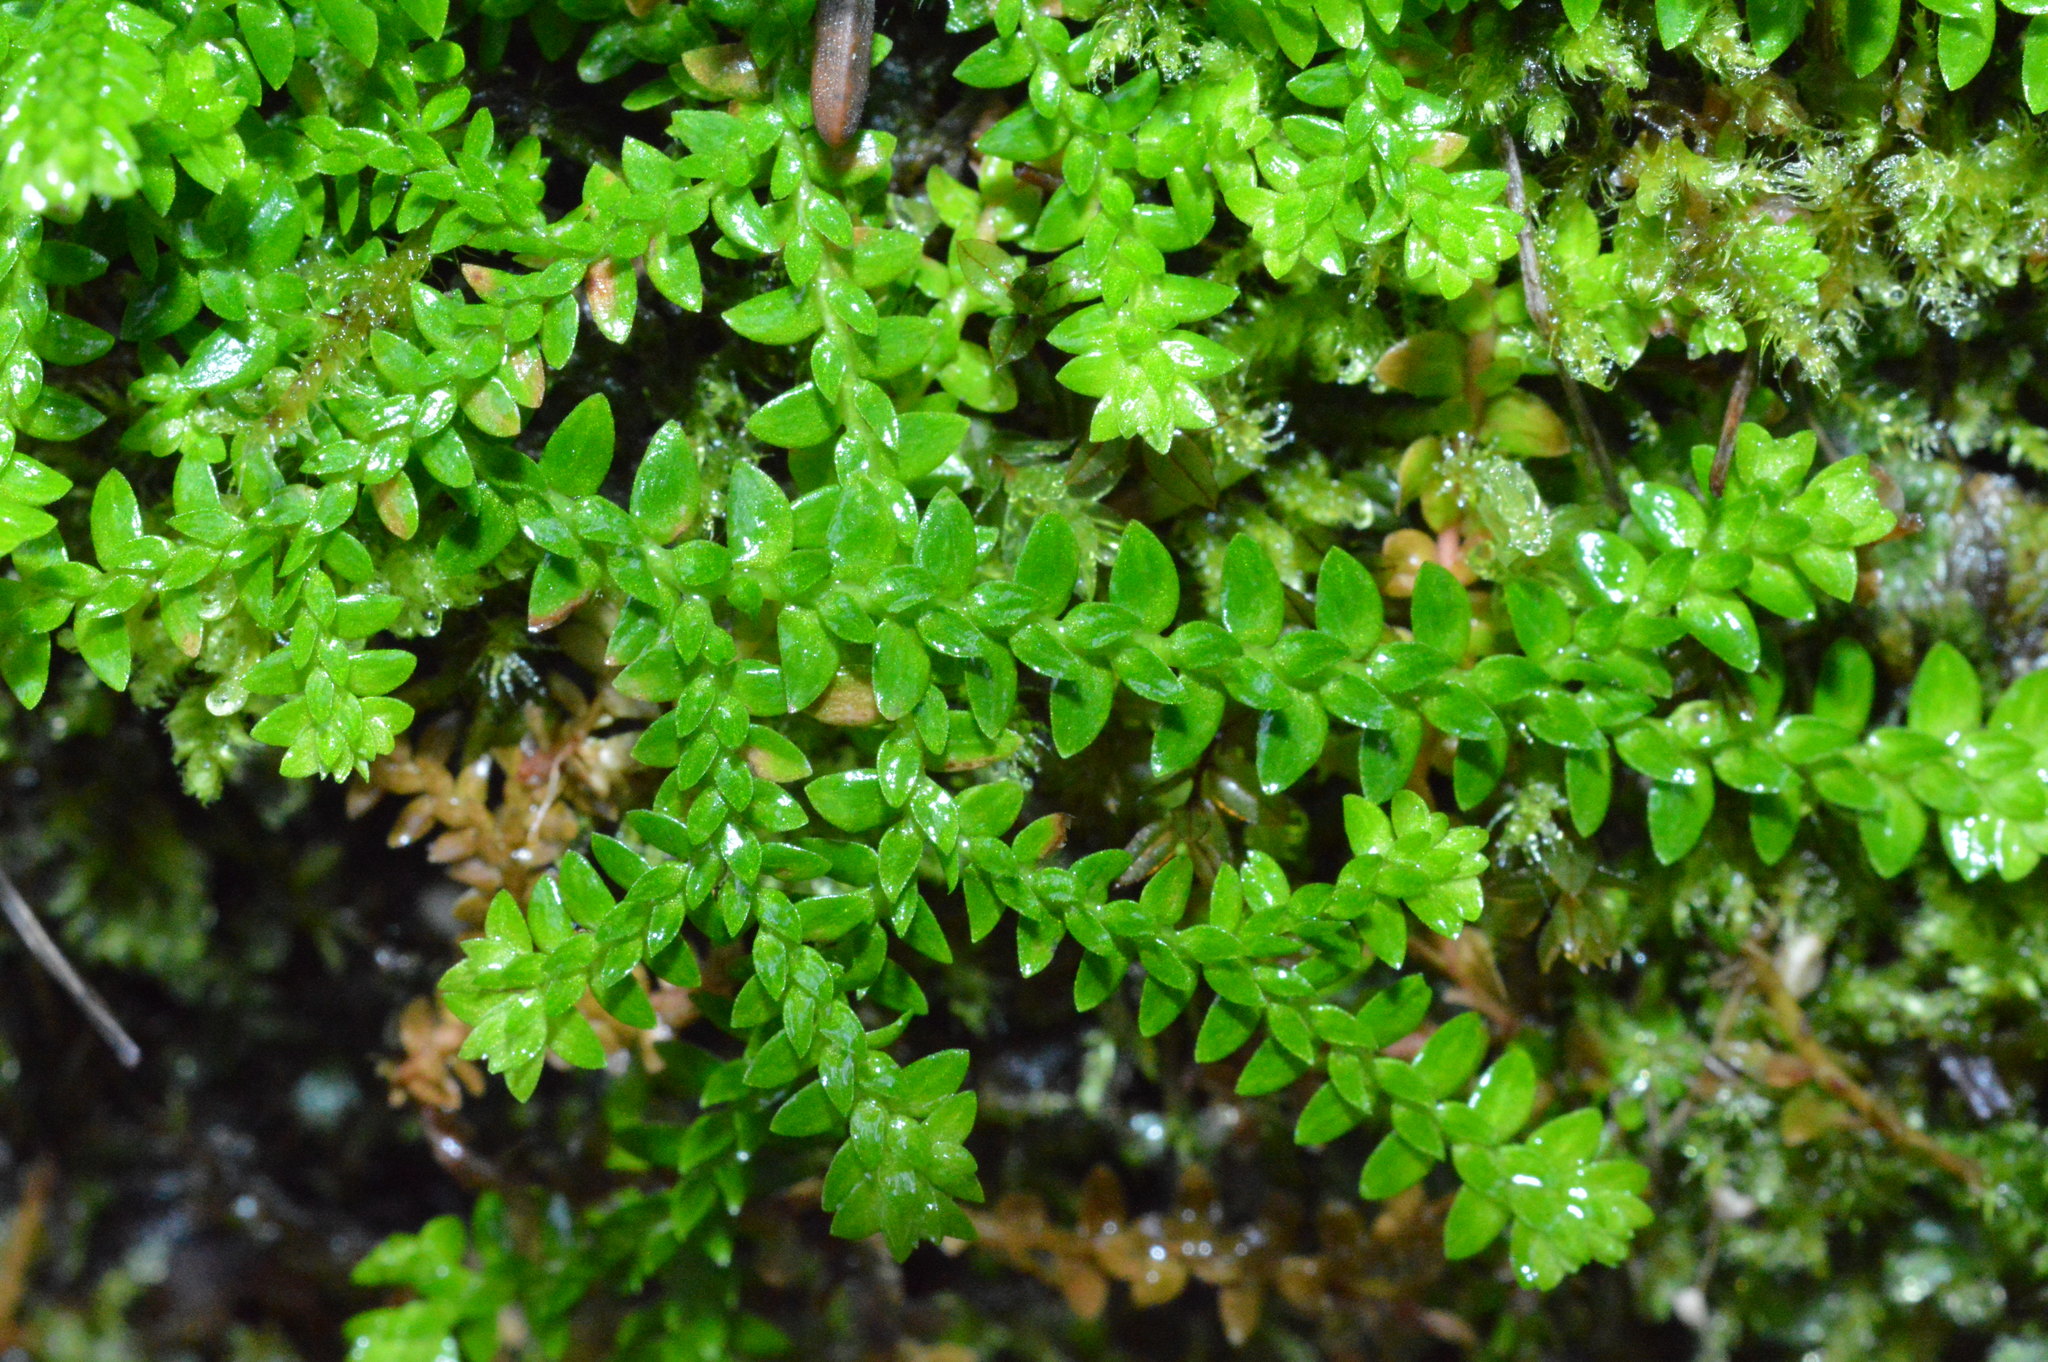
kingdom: Plantae
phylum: Tracheophyta
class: Lycopodiopsida
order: Selaginellales
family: Selaginellaceae
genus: Selaginella
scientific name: Selaginella helvetica
